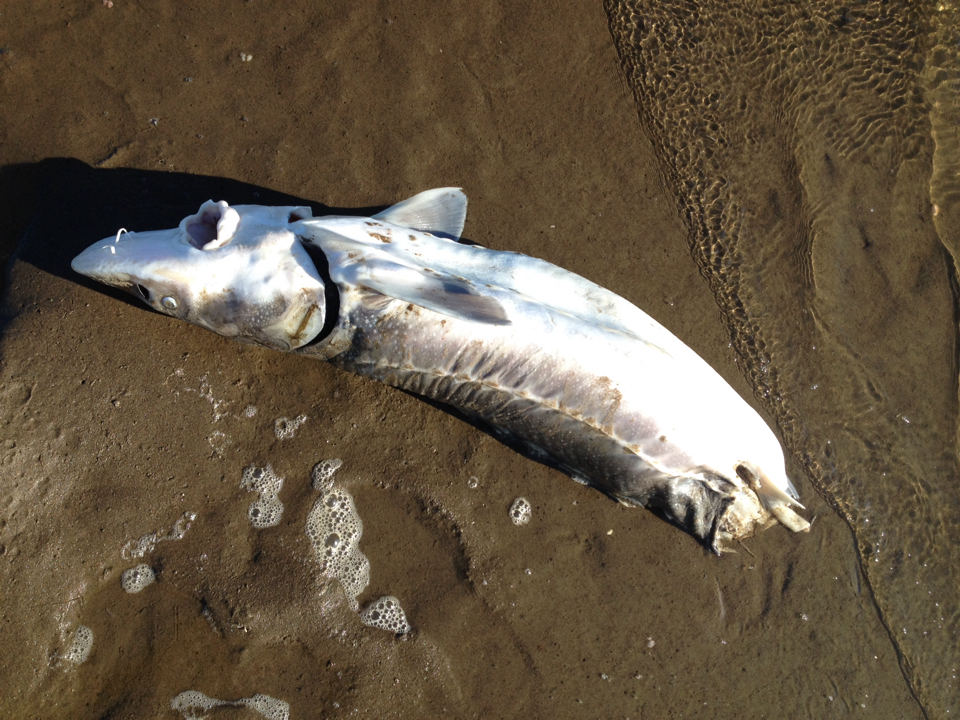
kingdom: Animalia
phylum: Chordata
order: Acipenseriformes
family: Acipenseridae
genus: Acipenser
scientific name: Acipenser transmontanus
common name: White sturgeon
